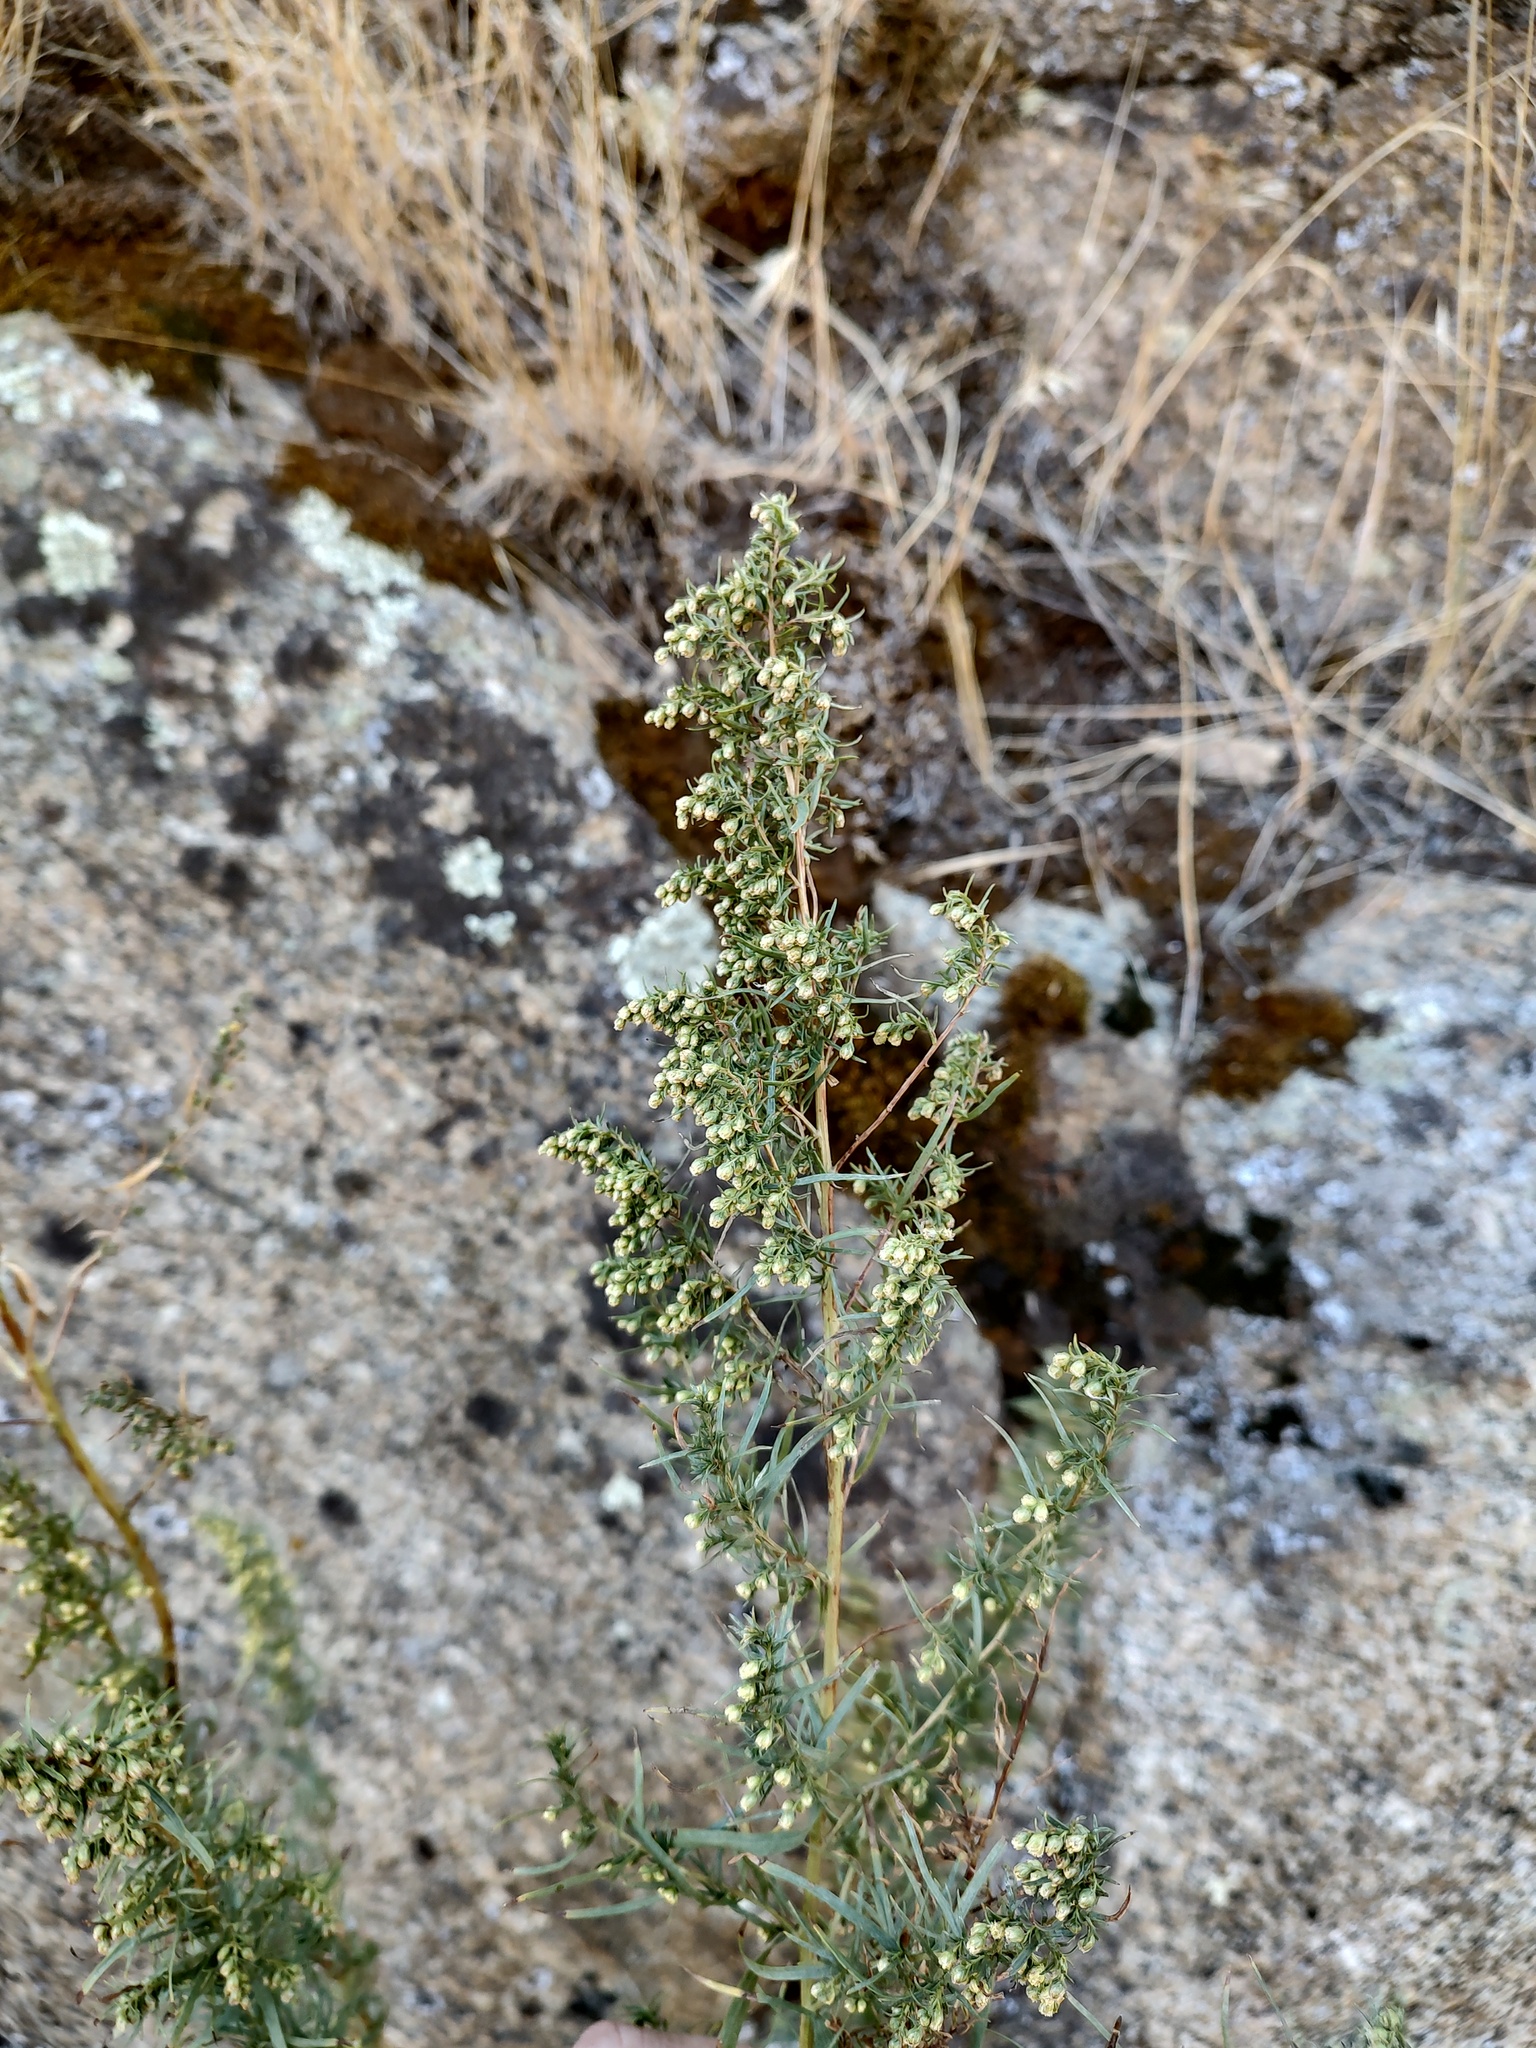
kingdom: Plantae
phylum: Tracheophyta
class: Magnoliopsida
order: Asterales
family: Asteraceae
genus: Artemisia
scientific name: Artemisia dracunculus
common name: Tarragon
